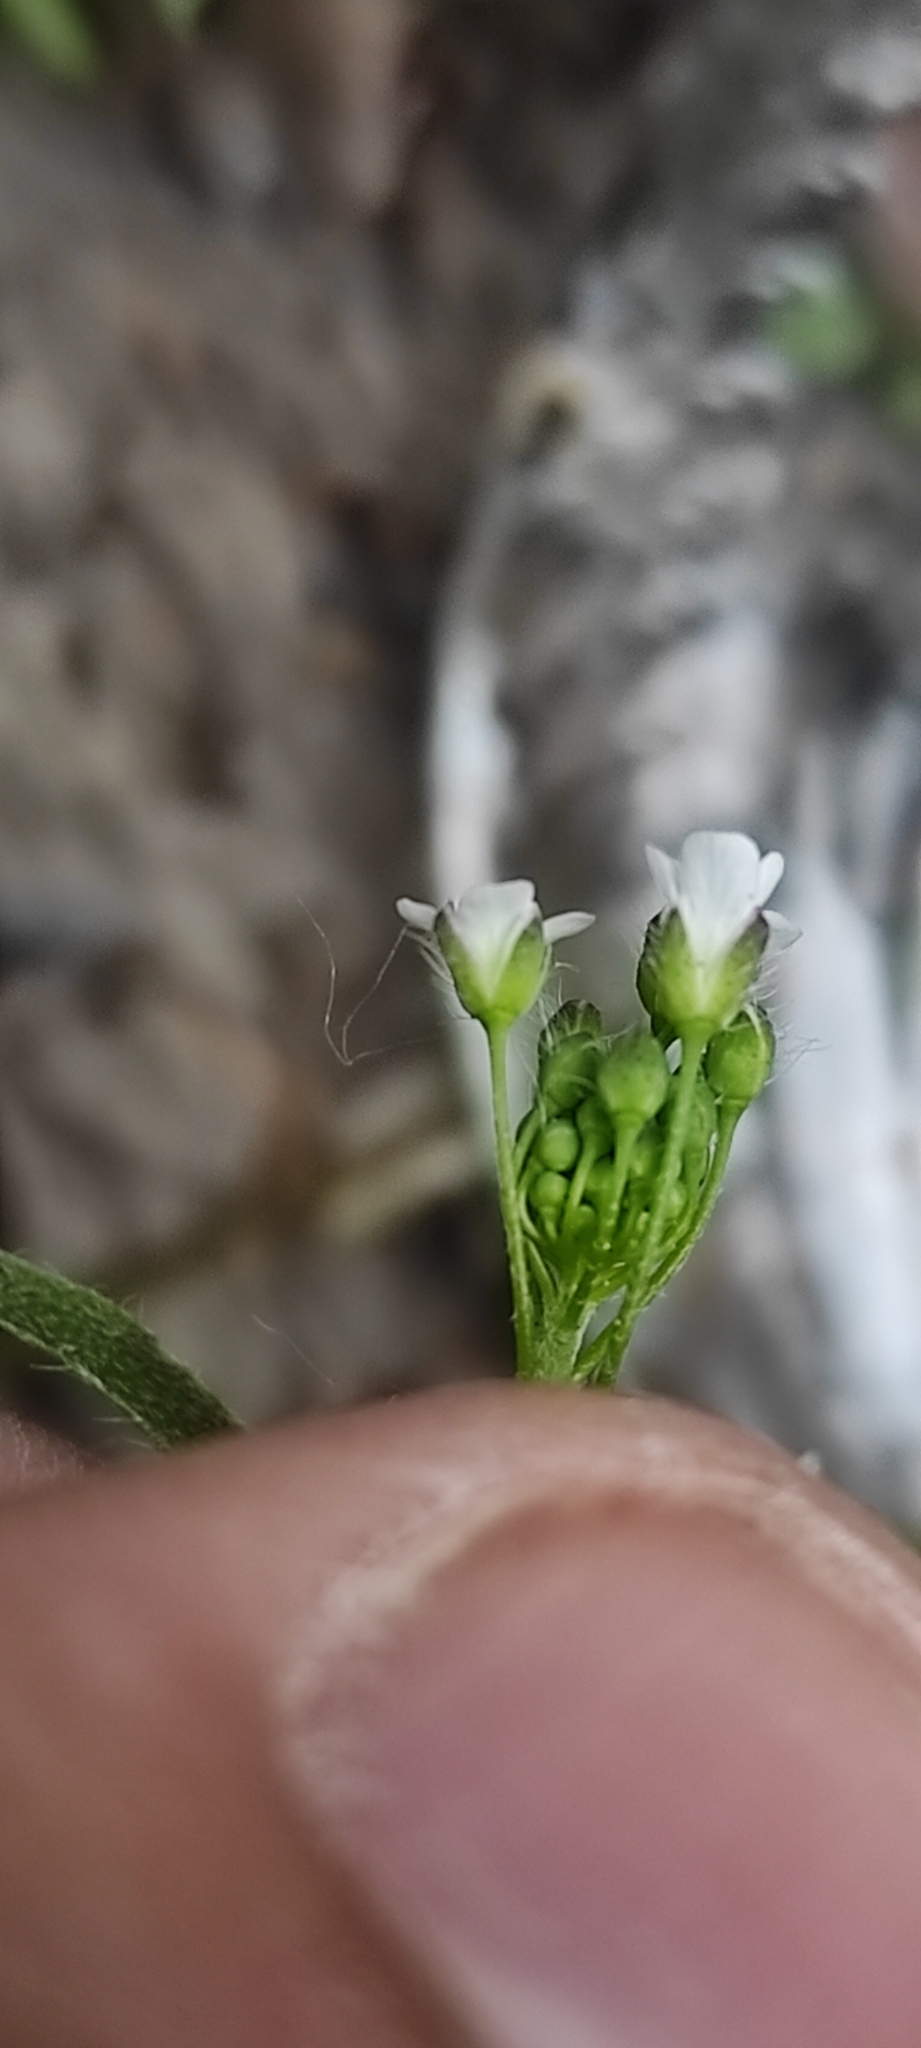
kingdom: Plantae
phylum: Tracheophyta
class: Magnoliopsida
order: Brassicales
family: Brassicaceae
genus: Capsella
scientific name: Capsella bursa-pastoris
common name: Shepherd's purse
